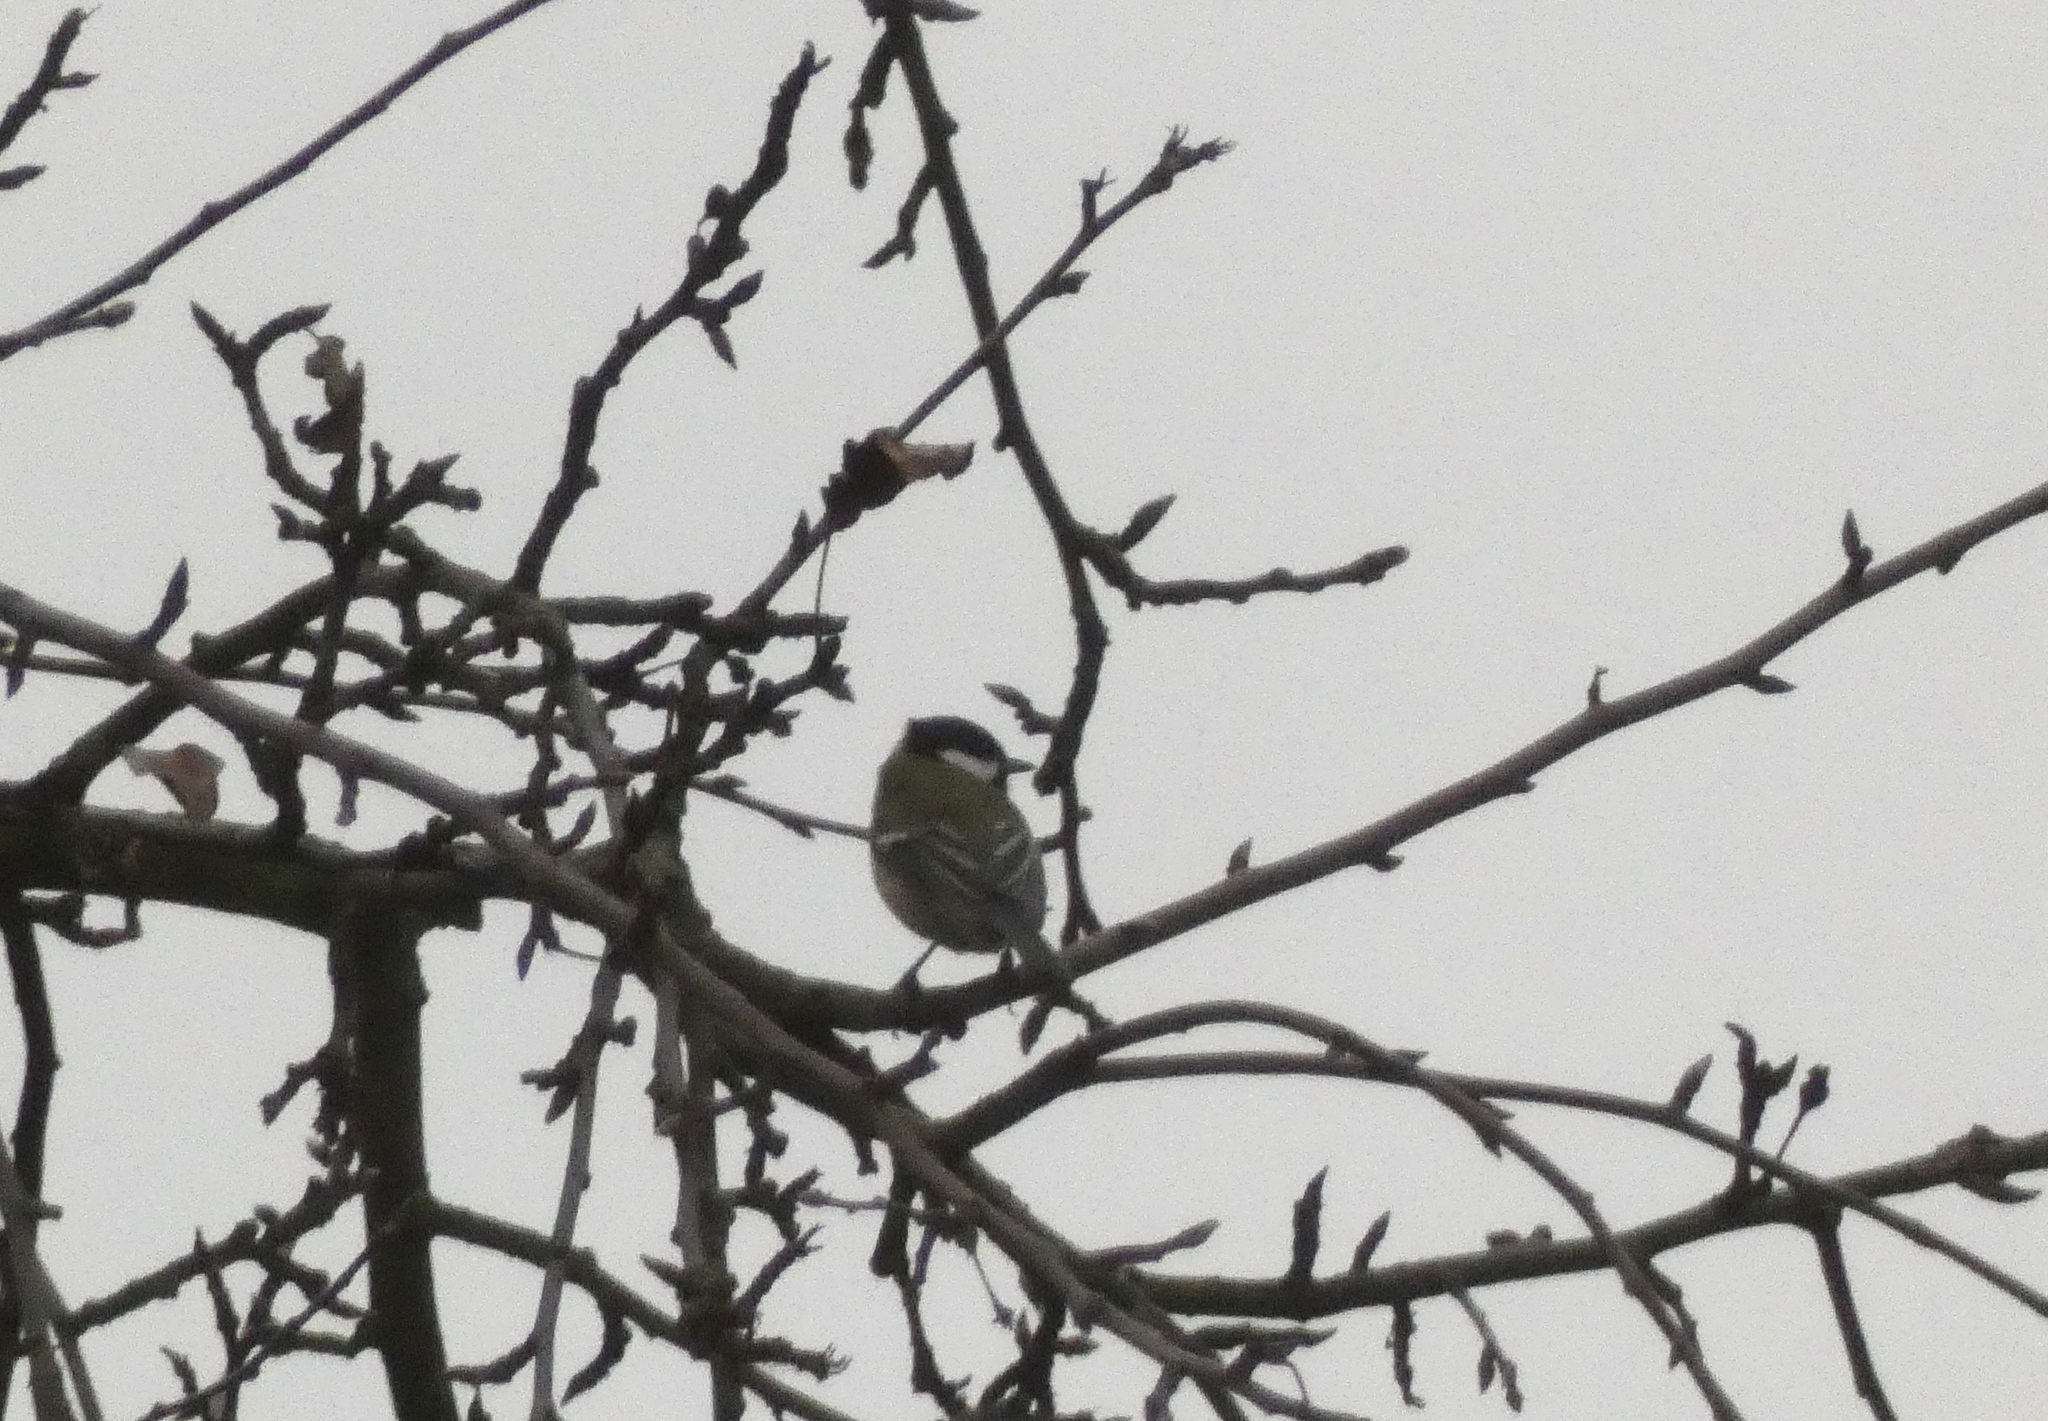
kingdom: Animalia
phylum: Chordata
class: Aves
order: Passeriformes
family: Paridae
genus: Parus
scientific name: Parus major
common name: Great tit
